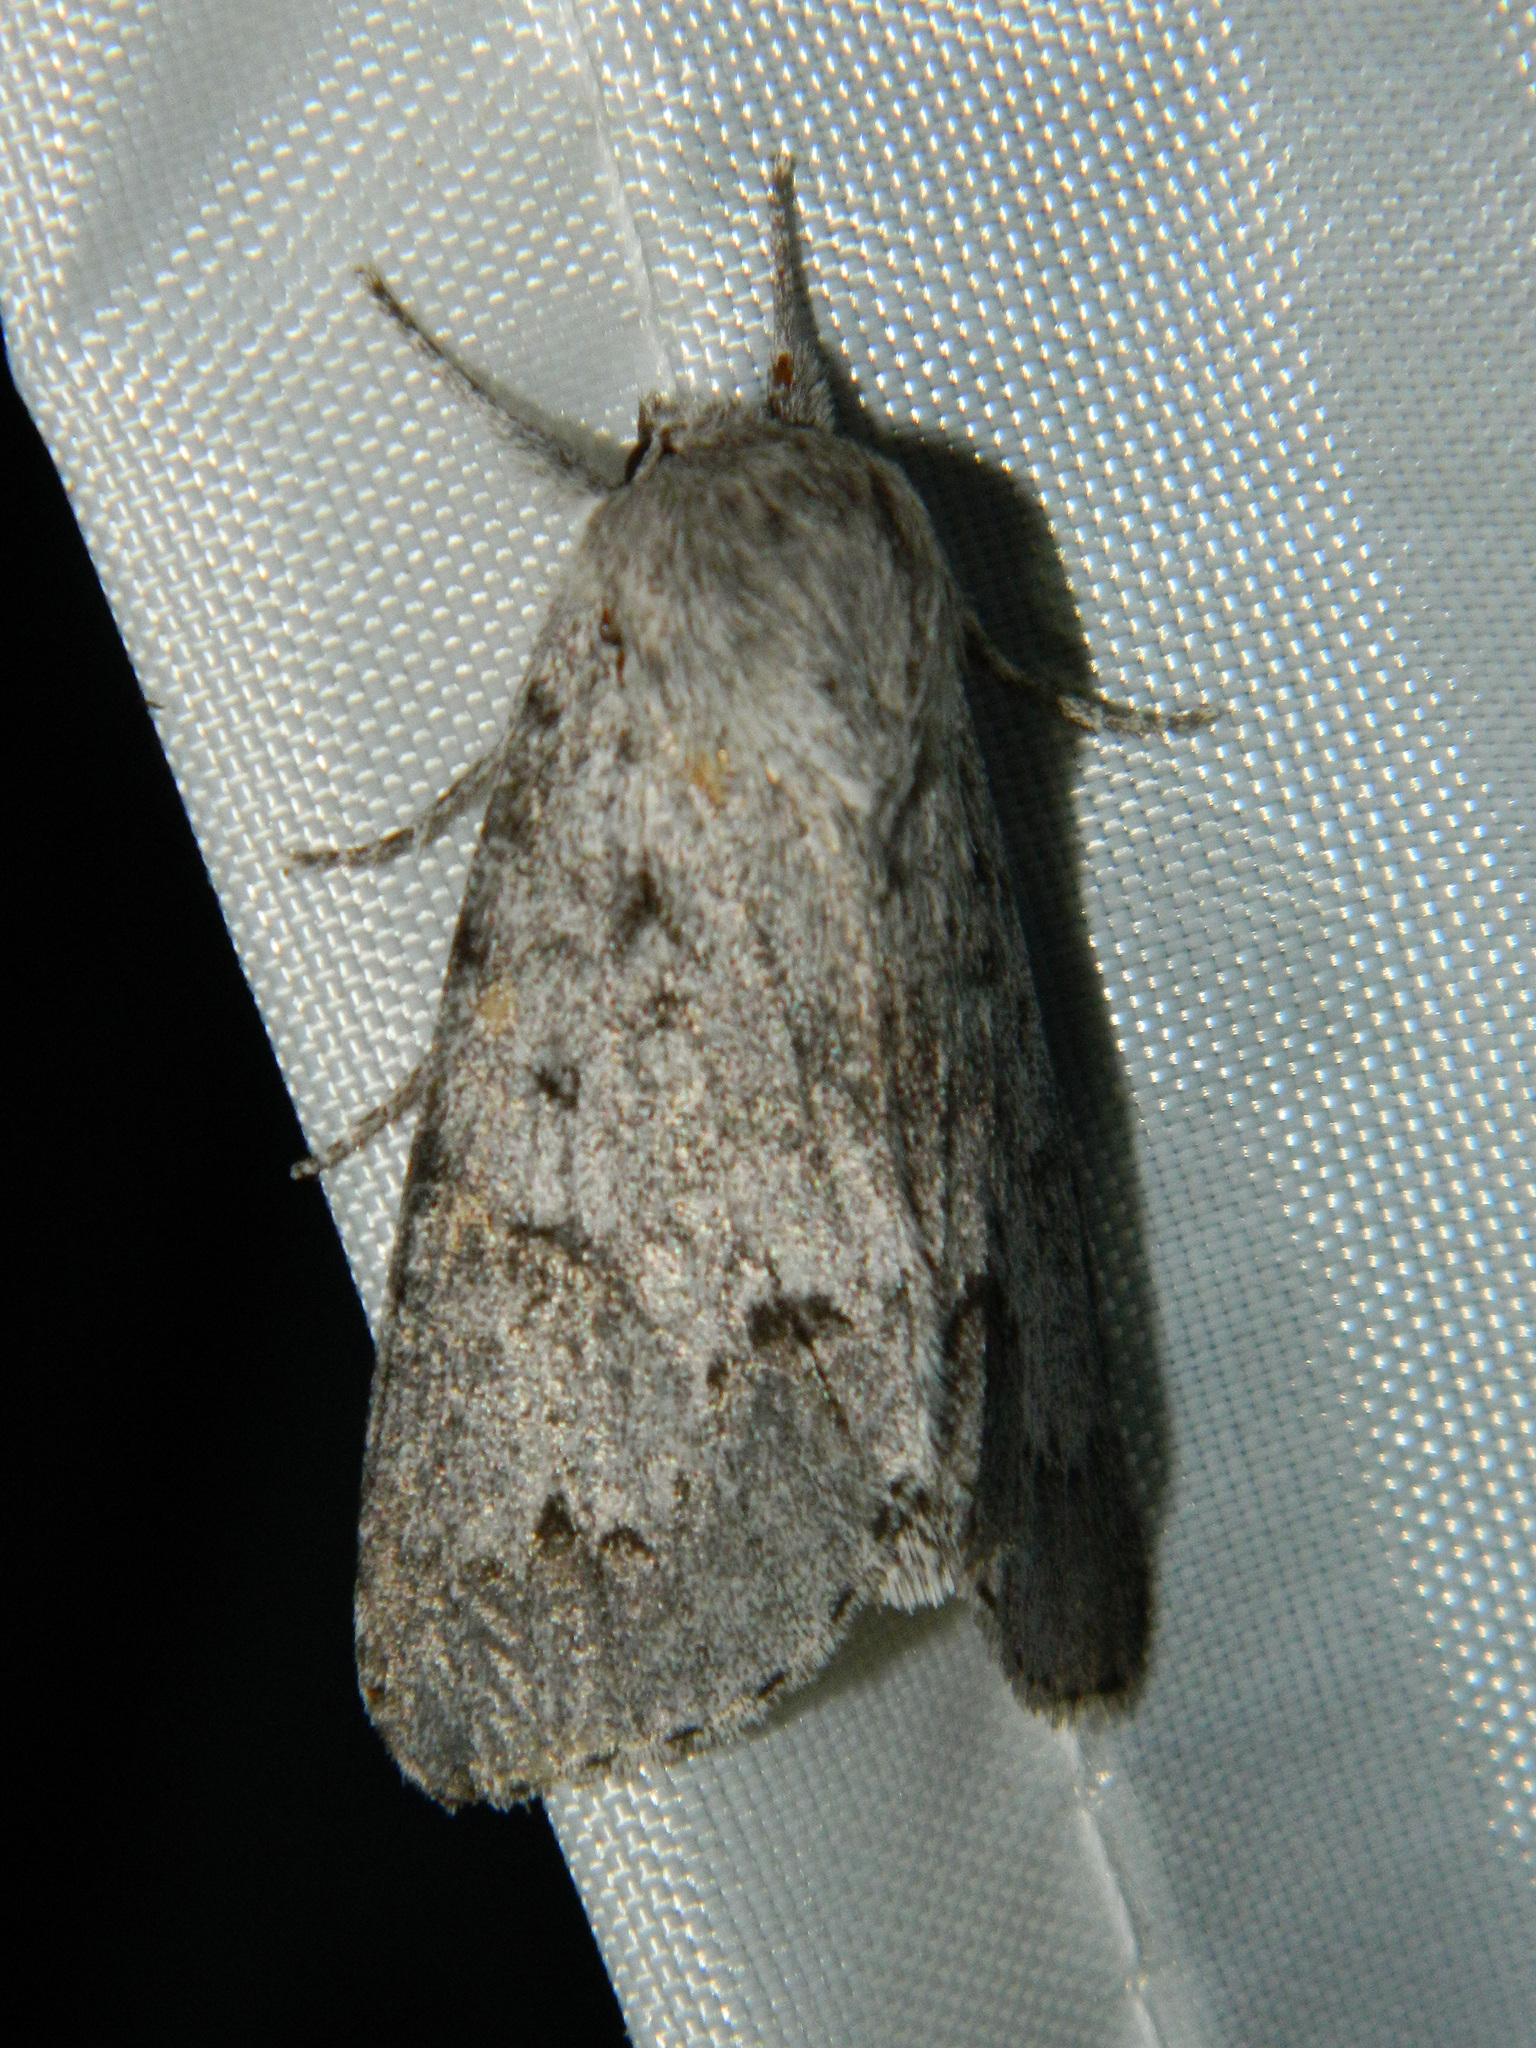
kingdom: Animalia
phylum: Arthropoda
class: Insecta
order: Lepidoptera
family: Noctuidae
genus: Acronicta
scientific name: Acronicta insita
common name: Large gray dagger
